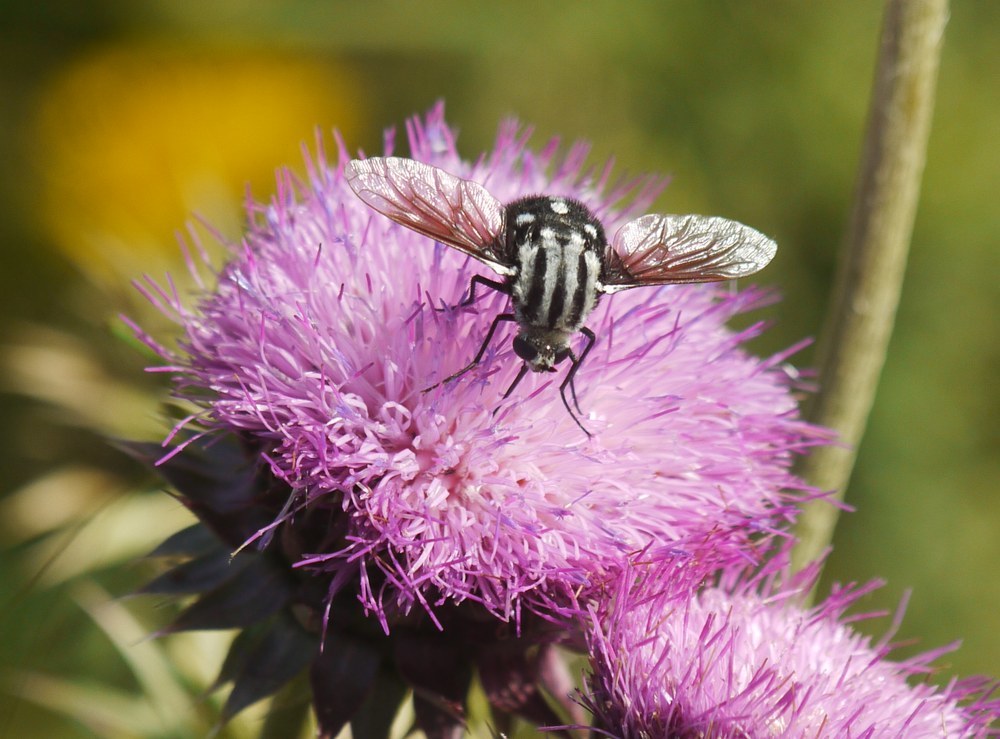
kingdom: Animalia
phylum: Arthropoda
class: Insecta
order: Diptera
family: Bombyliidae
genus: Bombomyia
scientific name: Bombomyia vertebralis
